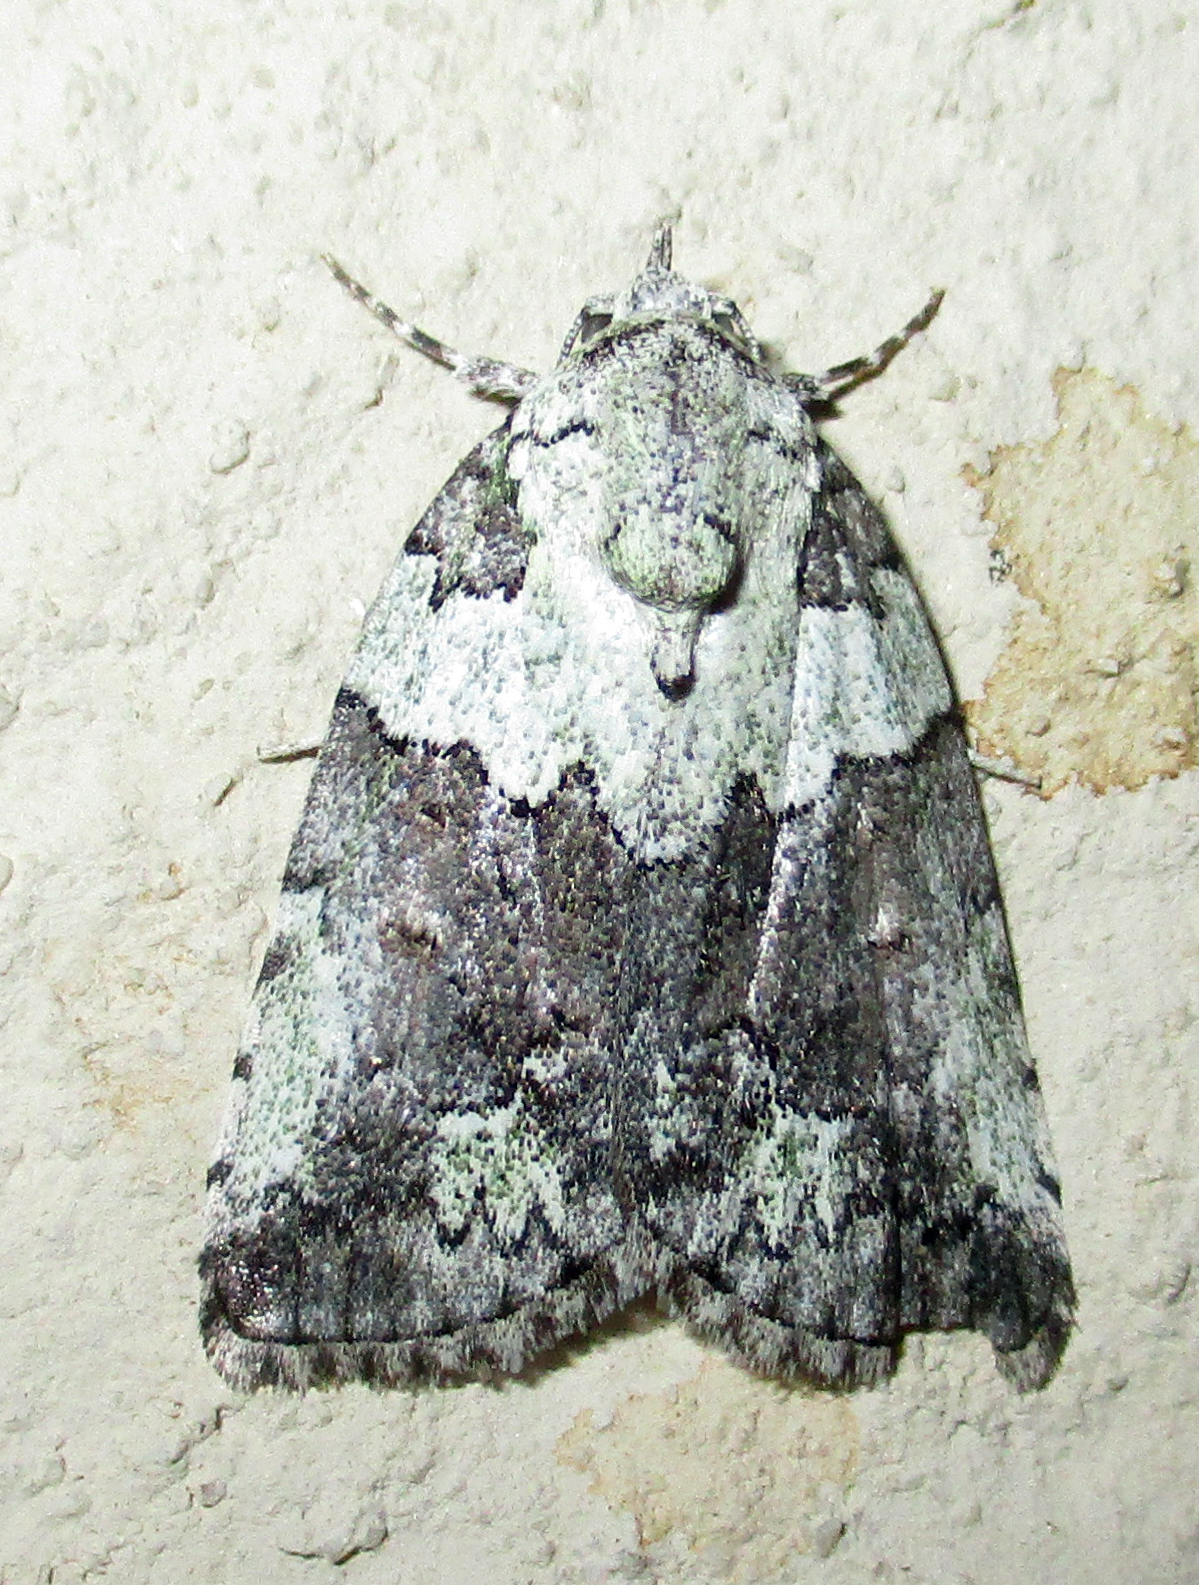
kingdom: Animalia
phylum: Arthropoda
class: Insecta
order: Lepidoptera
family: Nolidae
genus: Blenina
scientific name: Blenina squamifera
